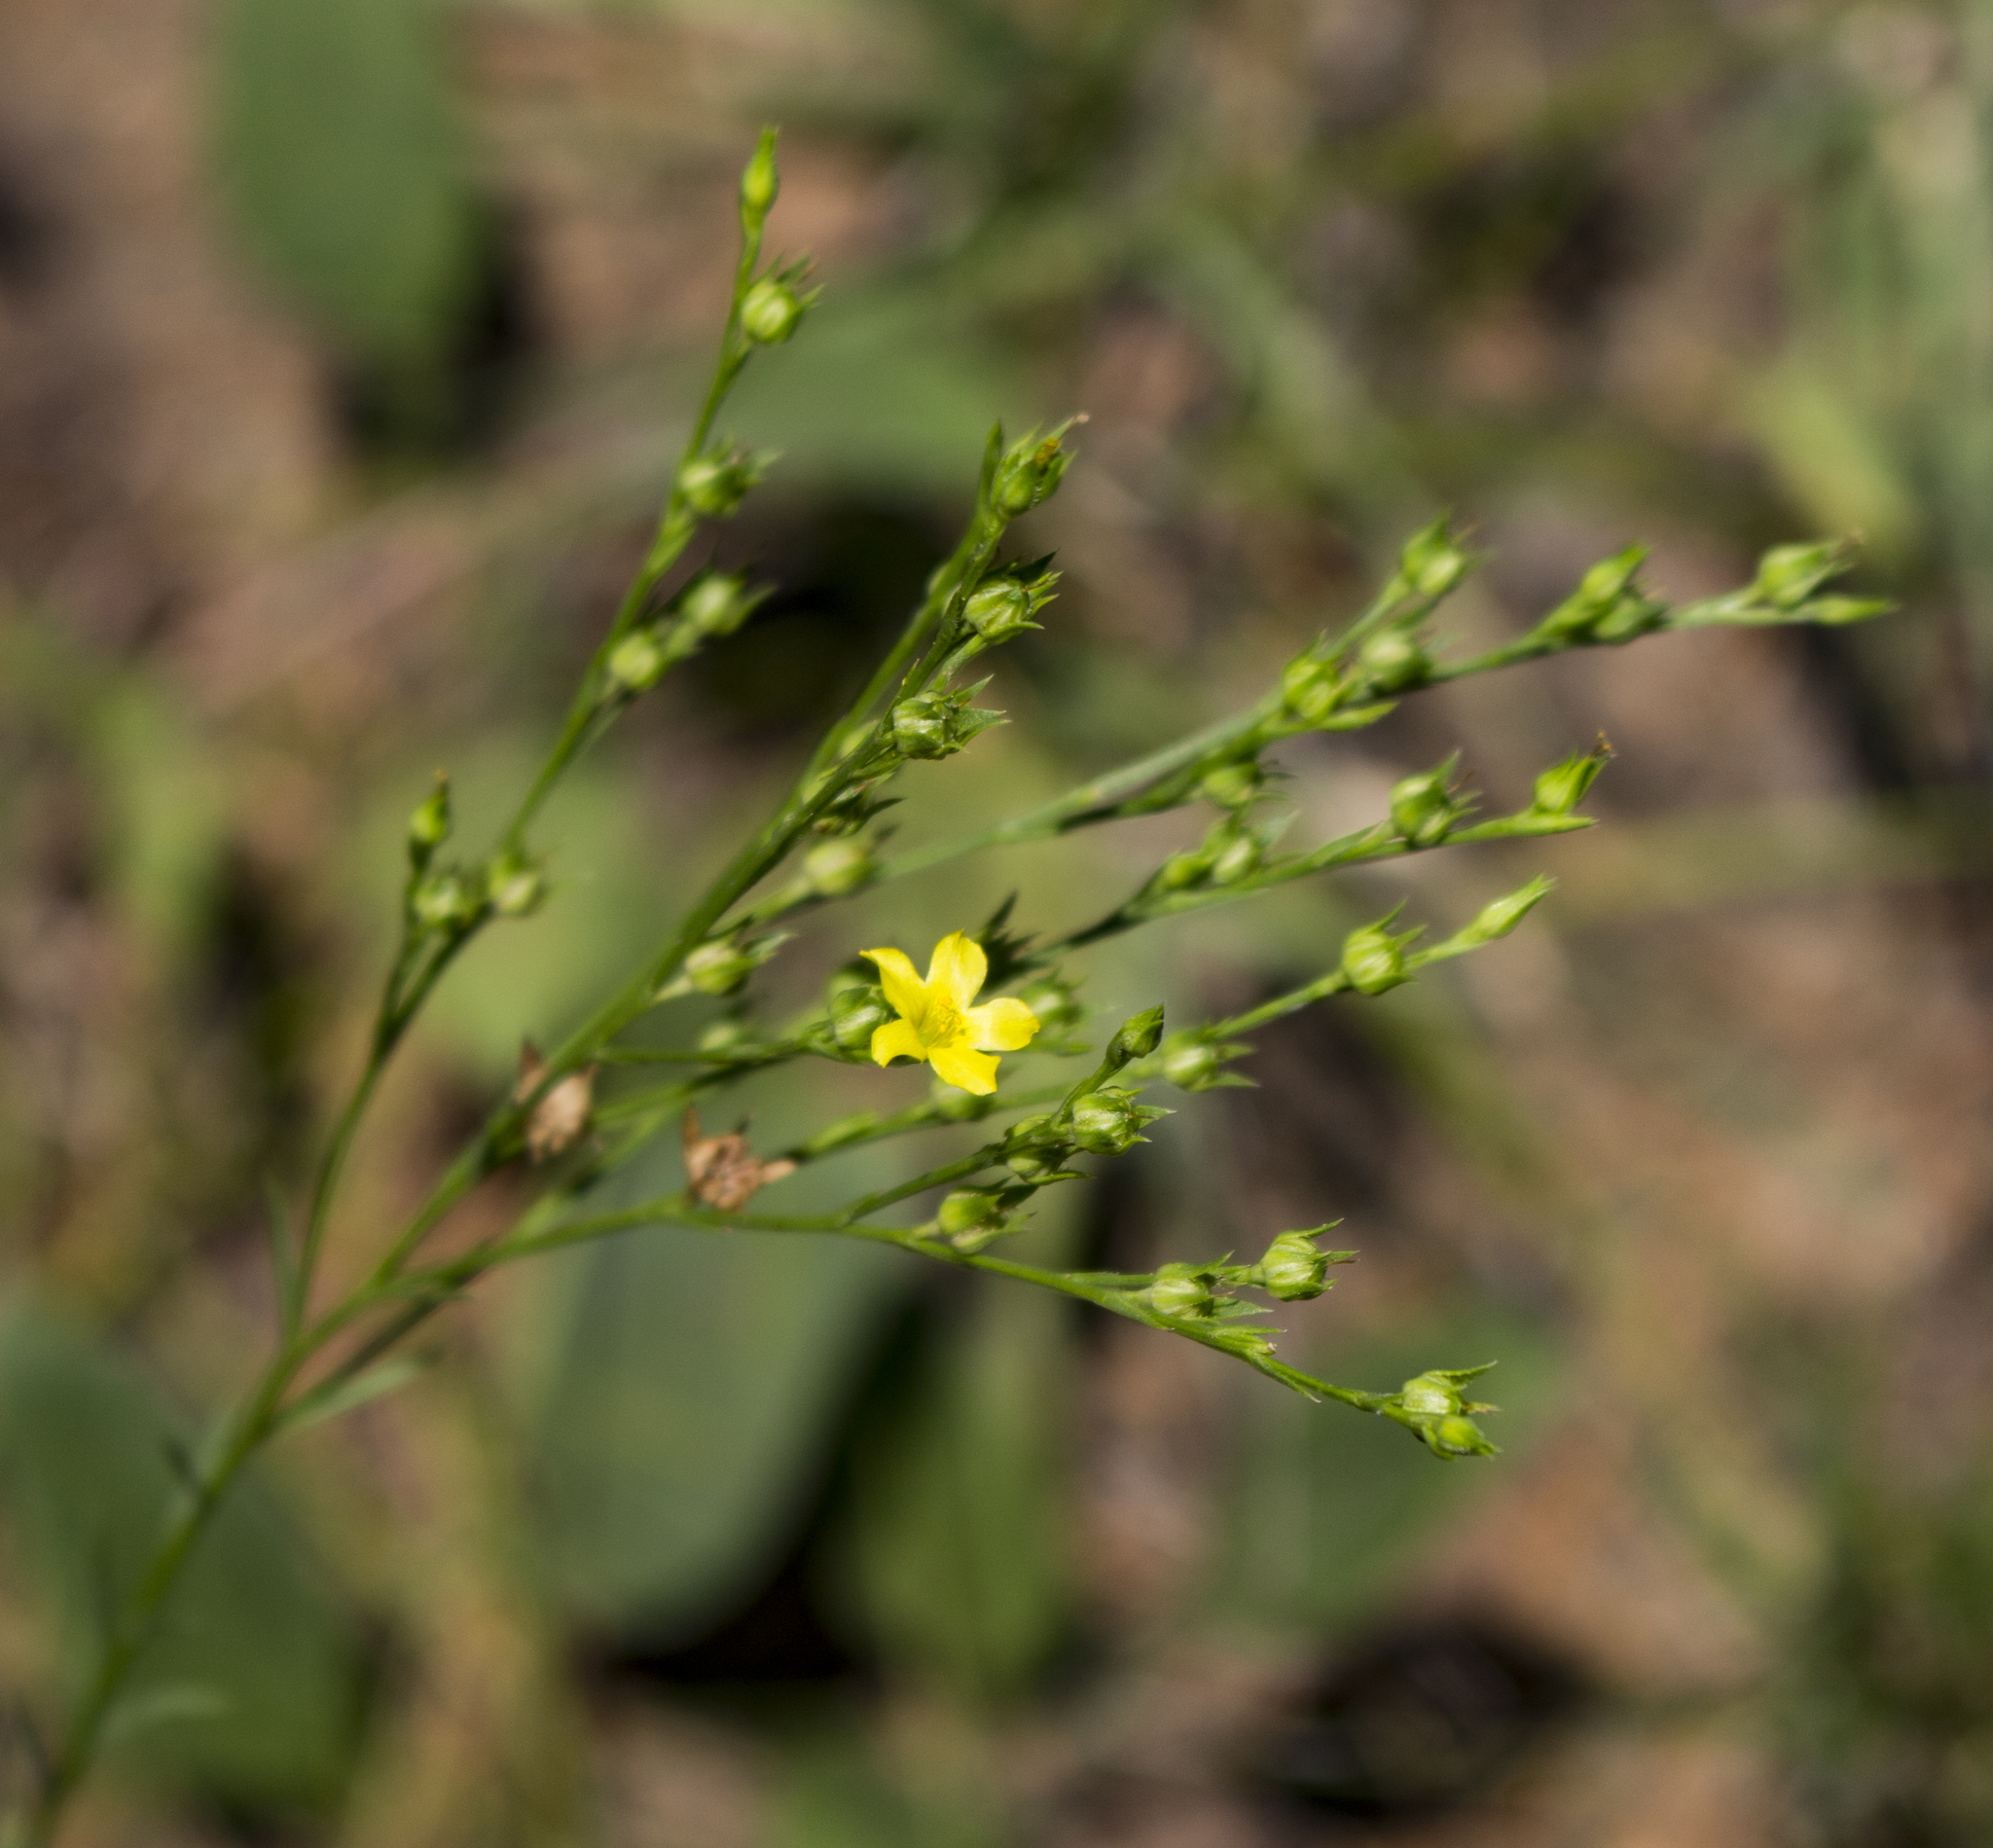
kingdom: Plantae
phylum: Tracheophyta
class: Magnoliopsida
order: Malpighiales
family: Linaceae
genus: Linum
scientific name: Linum sulcatum
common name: Grooved flax
